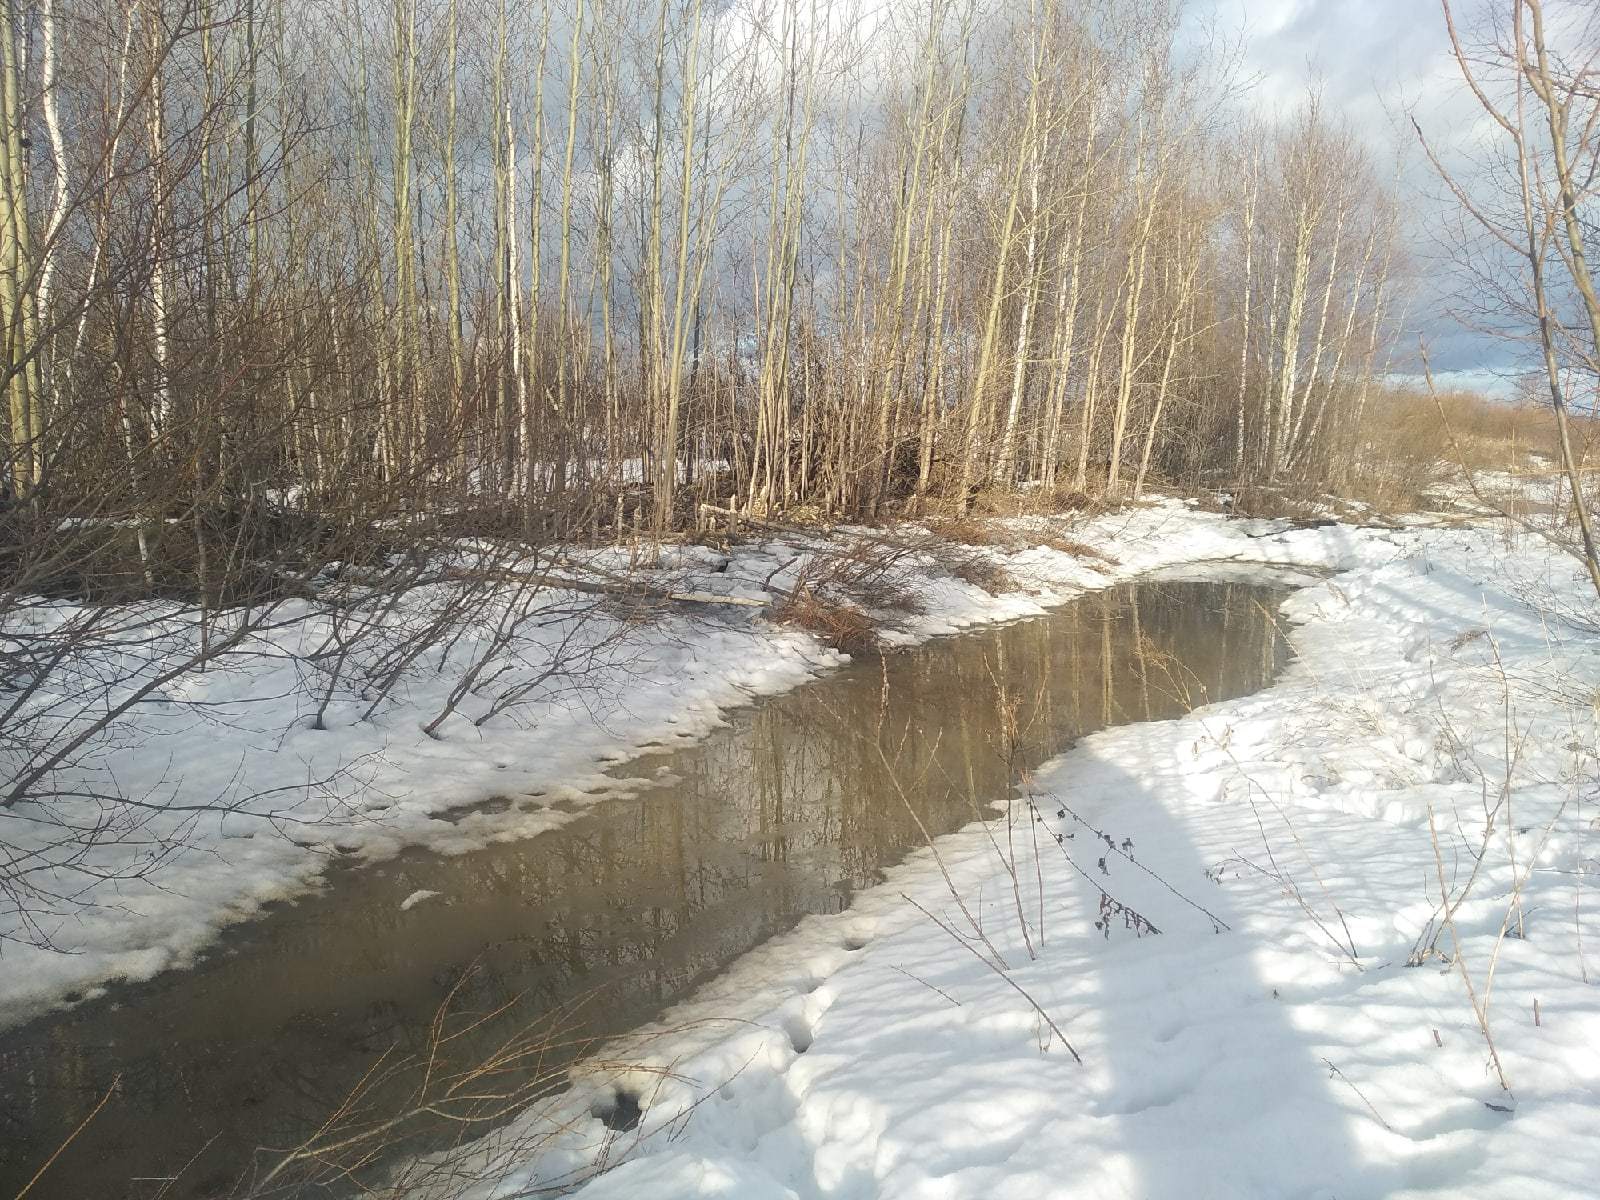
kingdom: Animalia
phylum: Chordata
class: Mammalia
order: Rodentia
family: Castoridae
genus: Castor
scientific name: Castor fiber
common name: Eurasian beaver
